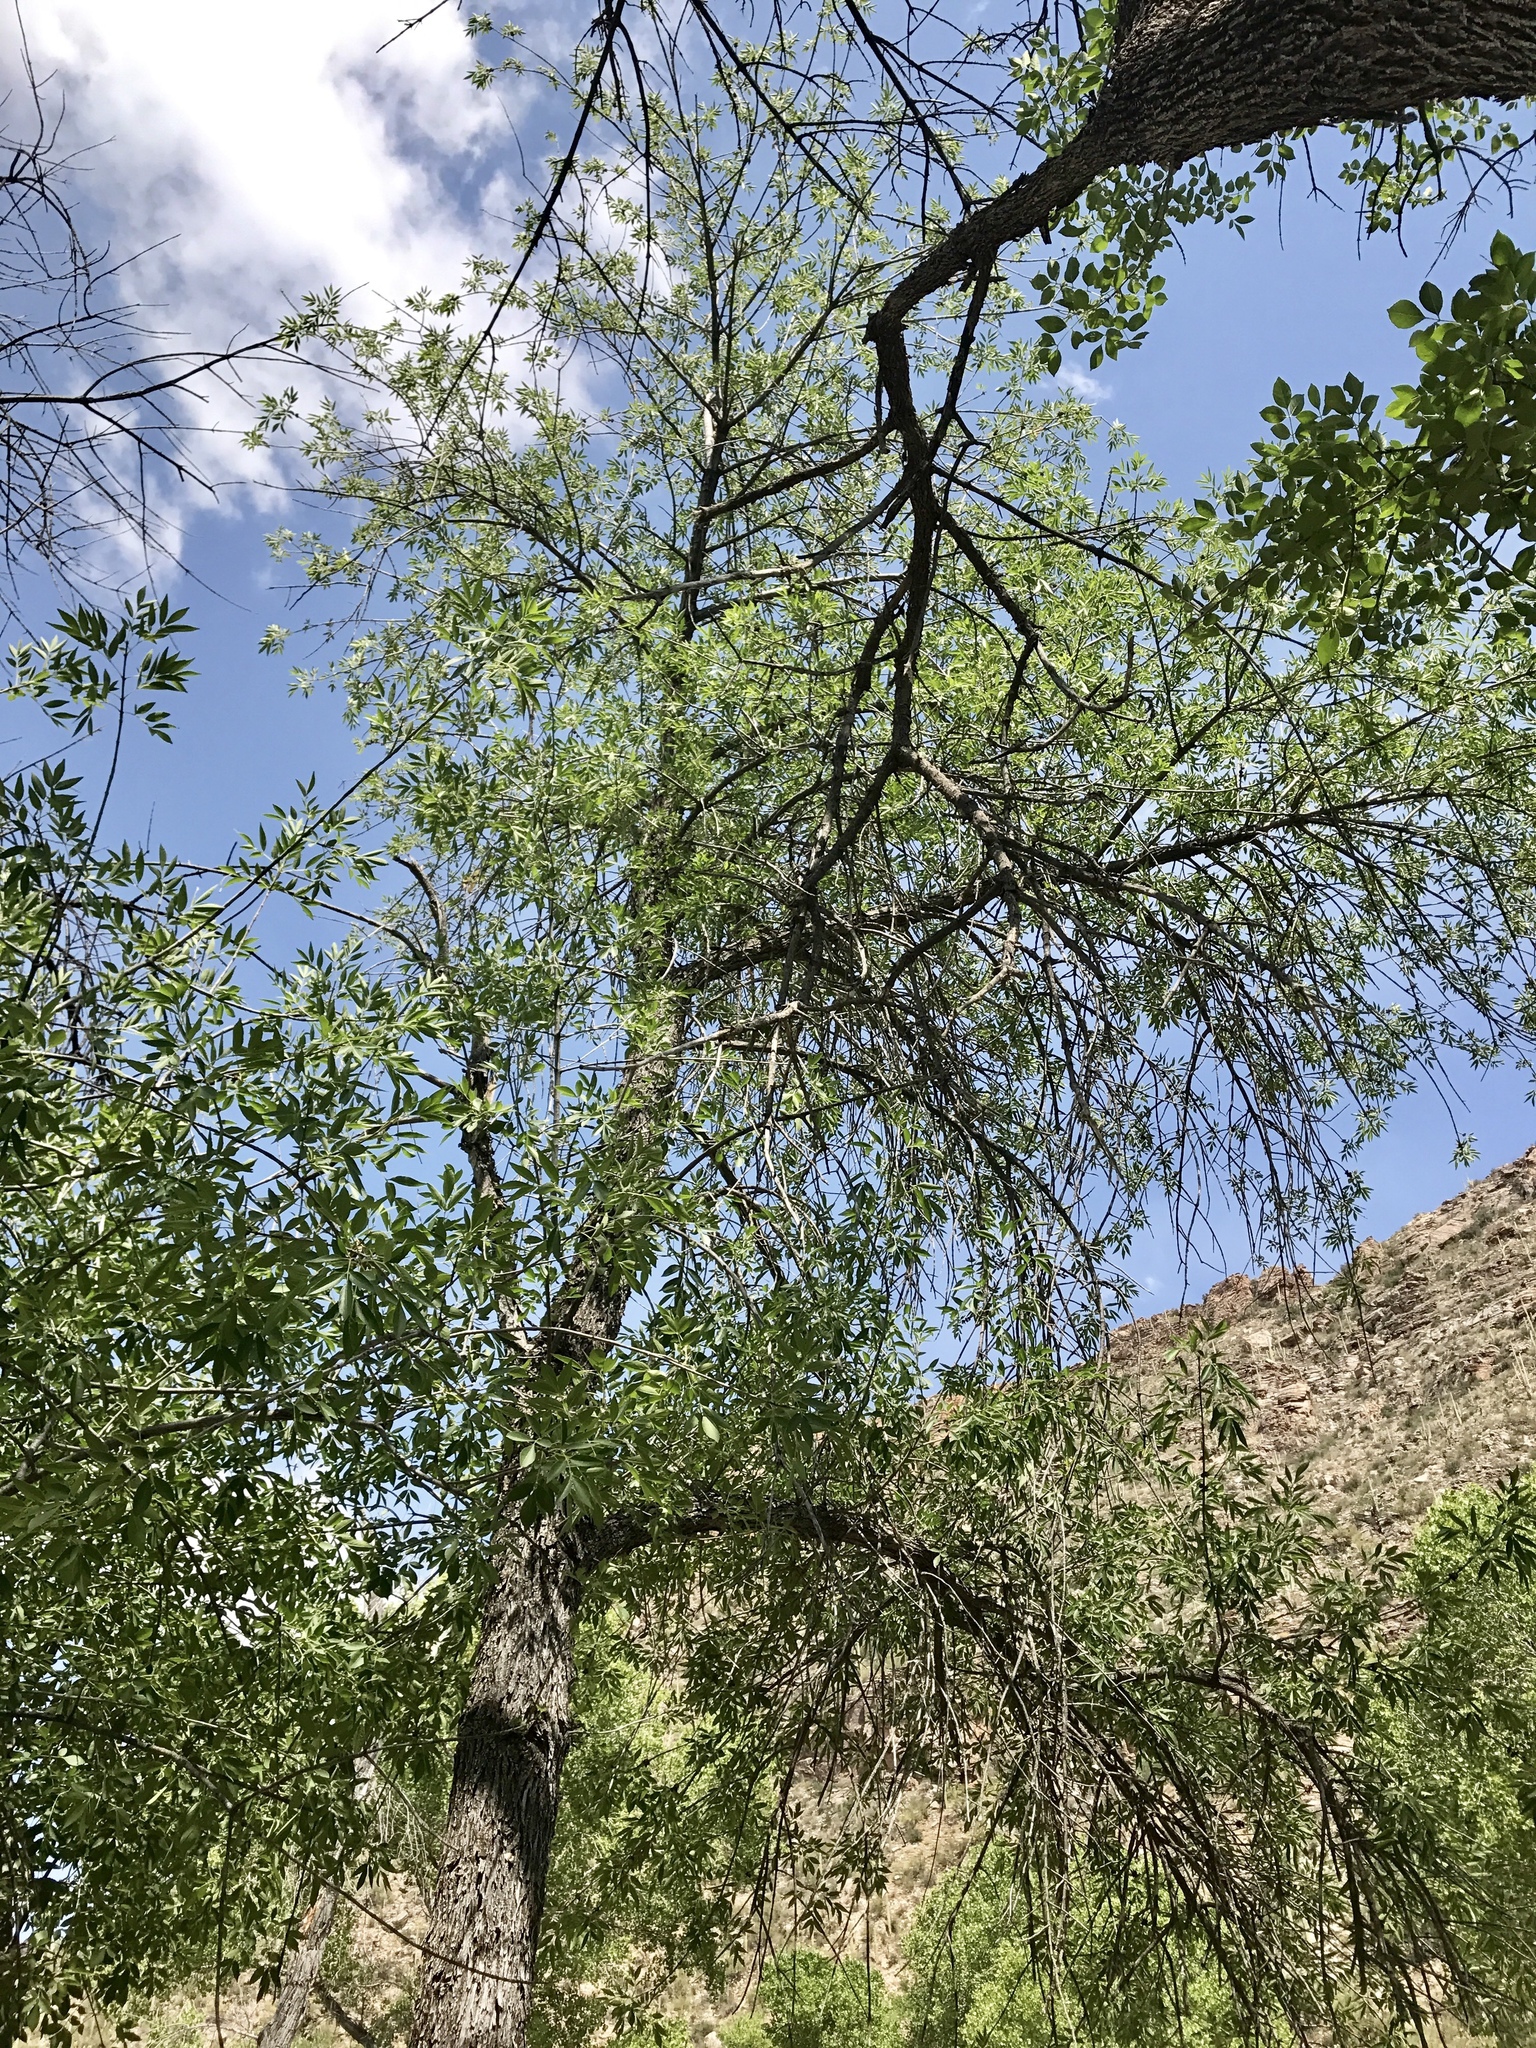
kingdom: Plantae
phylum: Tracheophyta
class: Magnoliopsida
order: Lamiales
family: Oleaceae
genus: Fraxinus
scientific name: Fraxinus velutina
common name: Arizon ash
